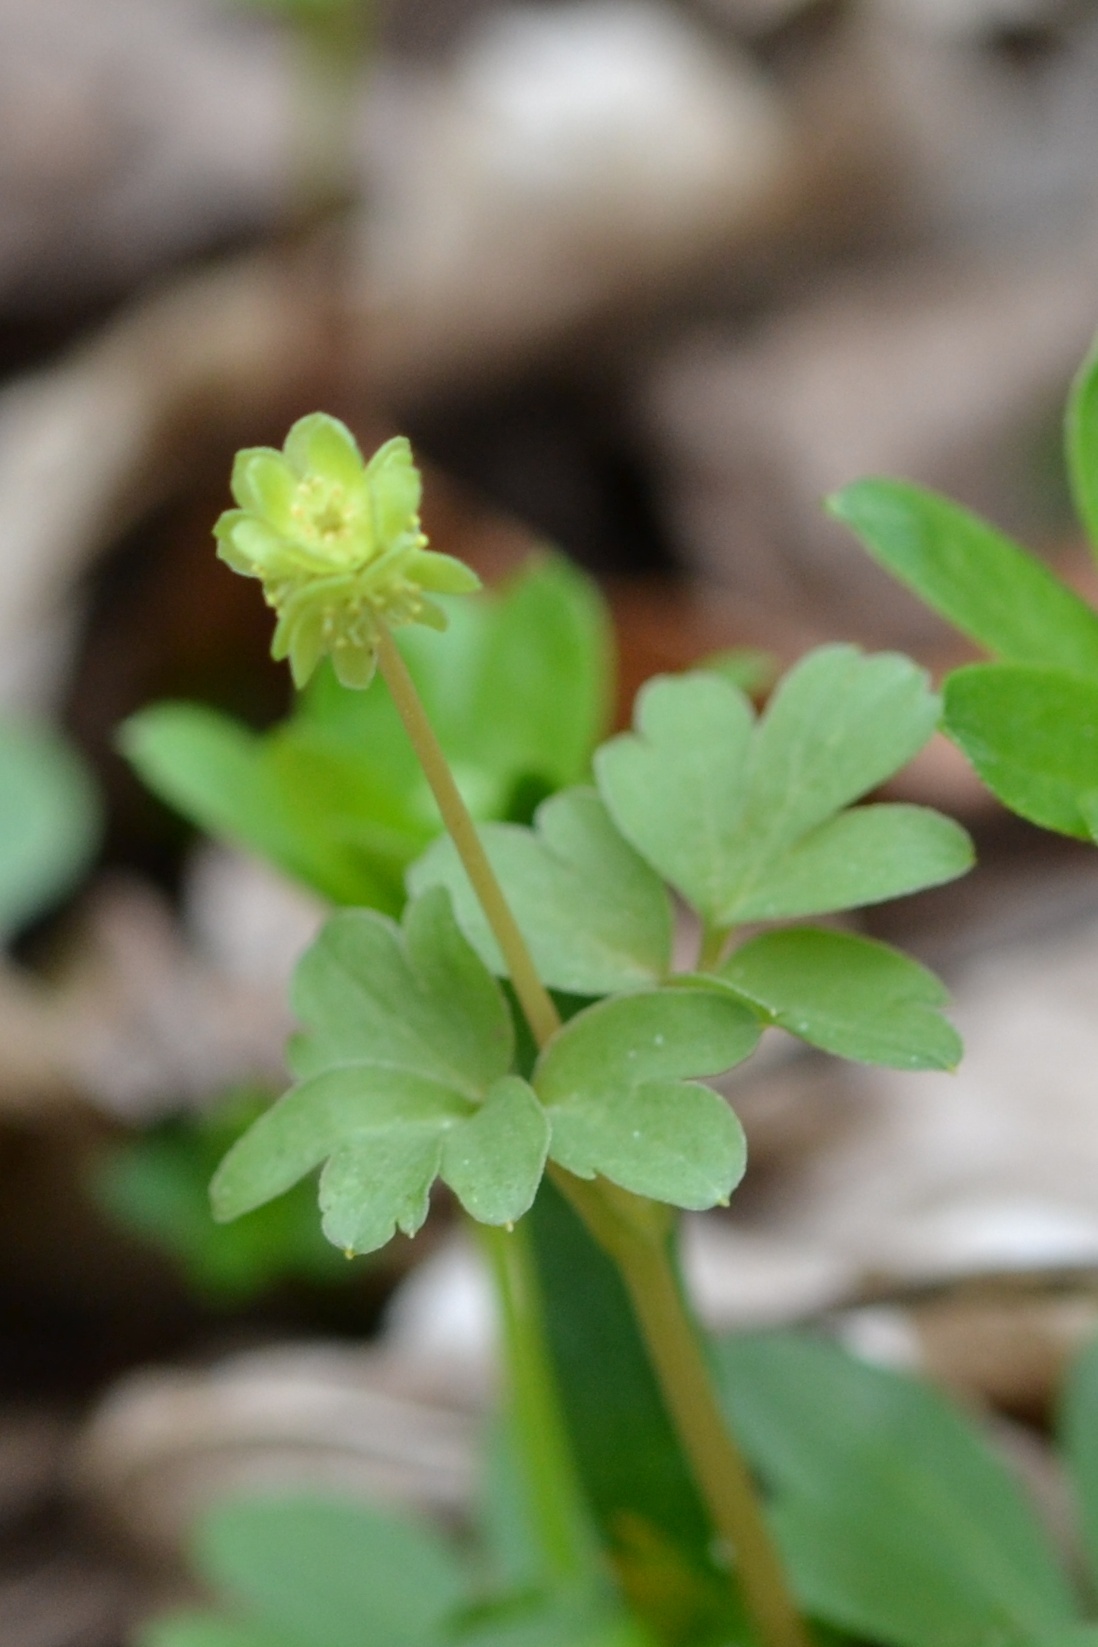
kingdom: Plantae
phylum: Tracheophyta
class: Magnoliopsida
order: Dipsacales
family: Viburnaceae
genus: Adoxa
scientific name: Adoxa moschatellina
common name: Moschatel
